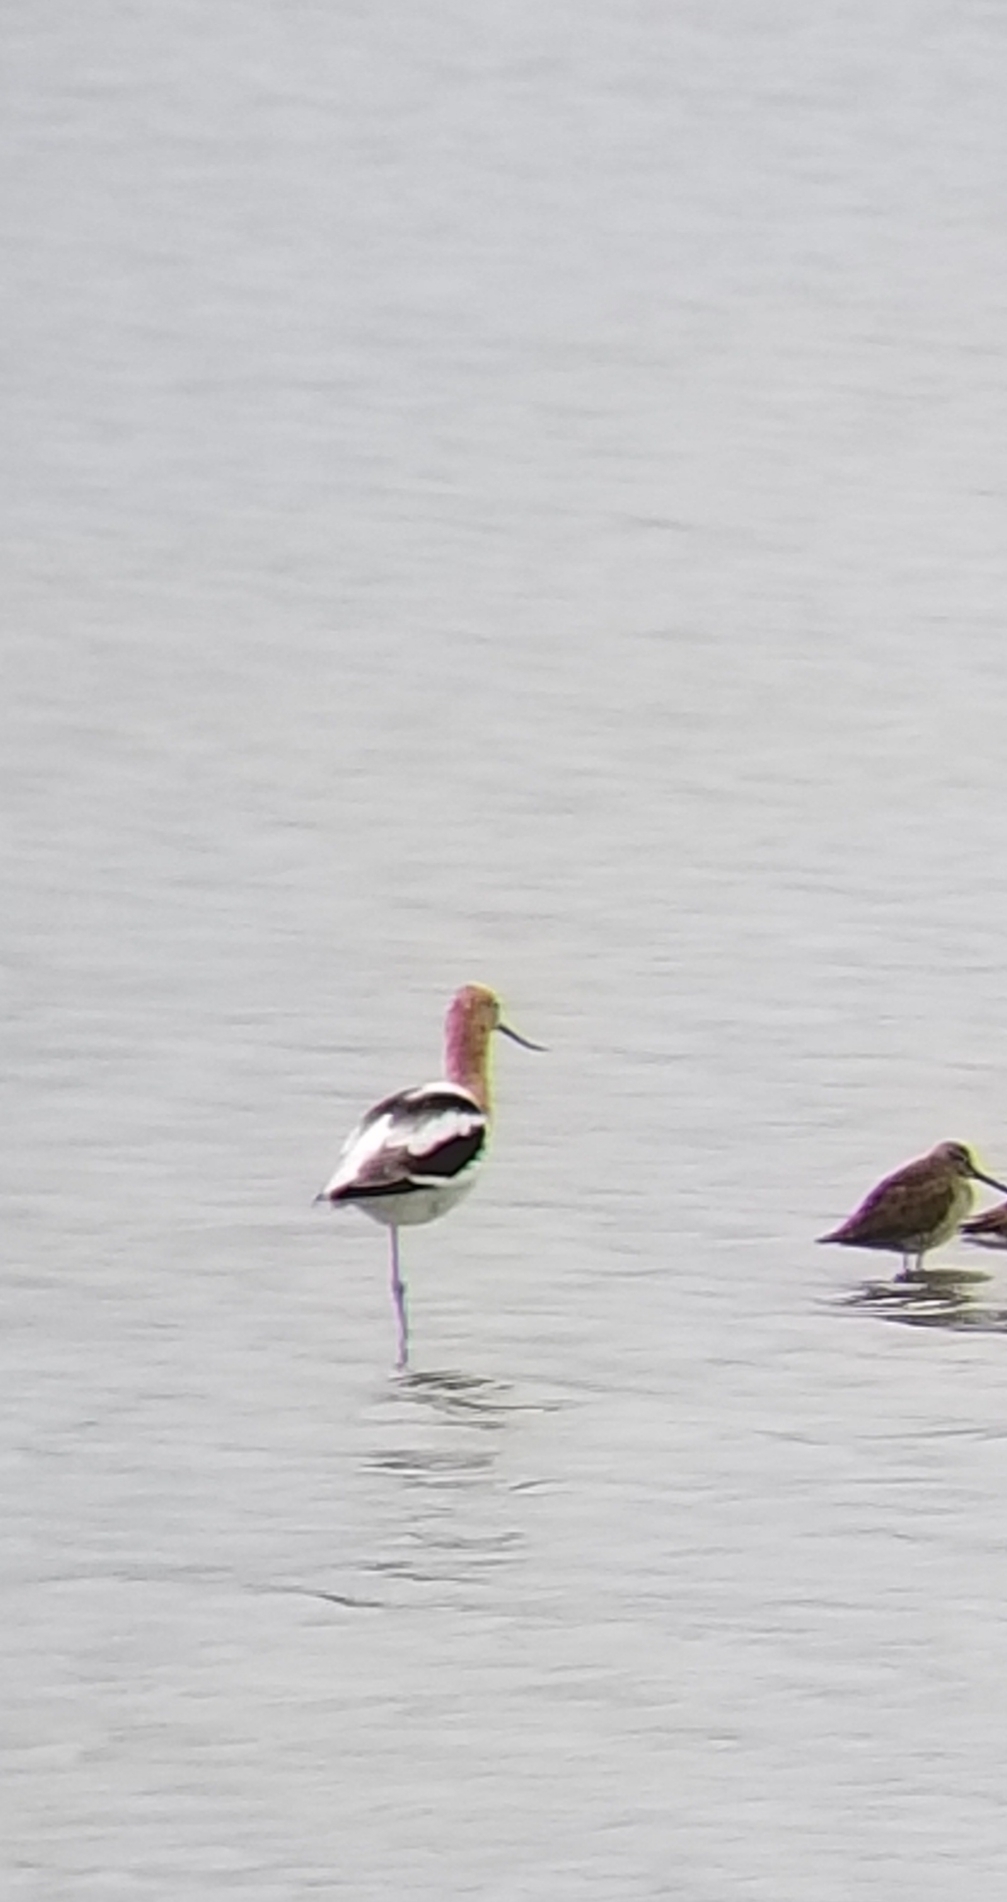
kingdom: Animalia
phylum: Chordata
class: Aves
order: Charadriiformes
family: Recurvirostridae
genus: Recurvirostra
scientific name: Recurvirostra americana
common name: American avocet
